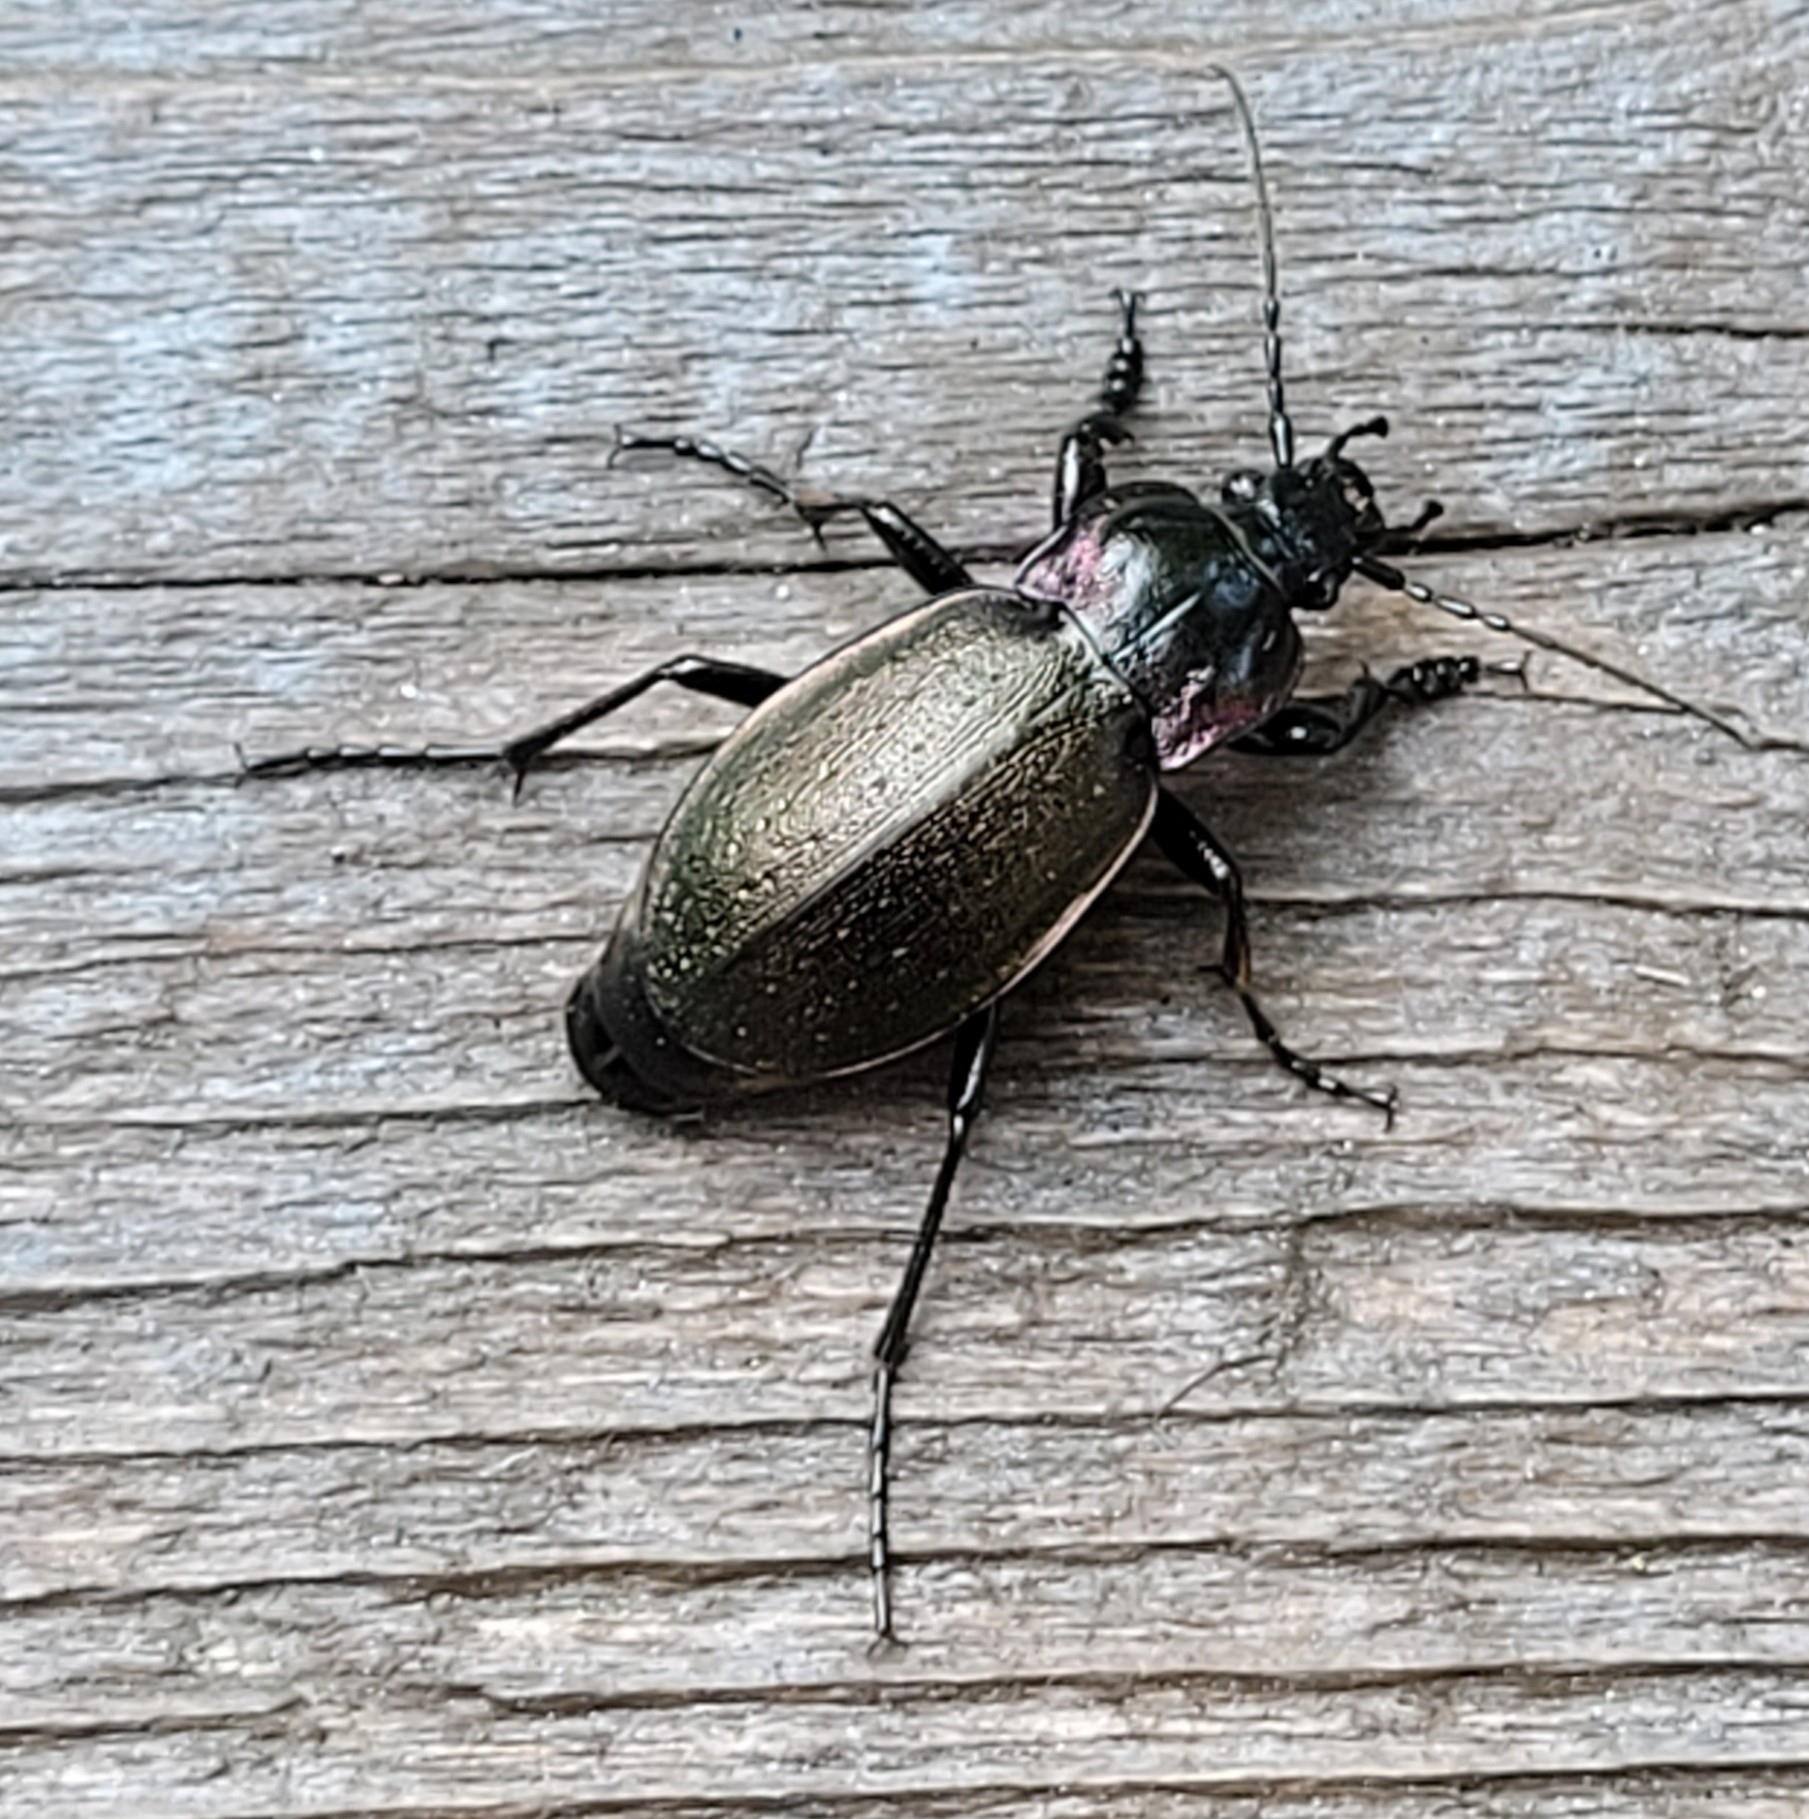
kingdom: Animalia
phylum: Arthropoda
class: Insecta
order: Coleoptera
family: Carabidae
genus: Carabus
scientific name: Carabus nemoralis
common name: European ground beetle
